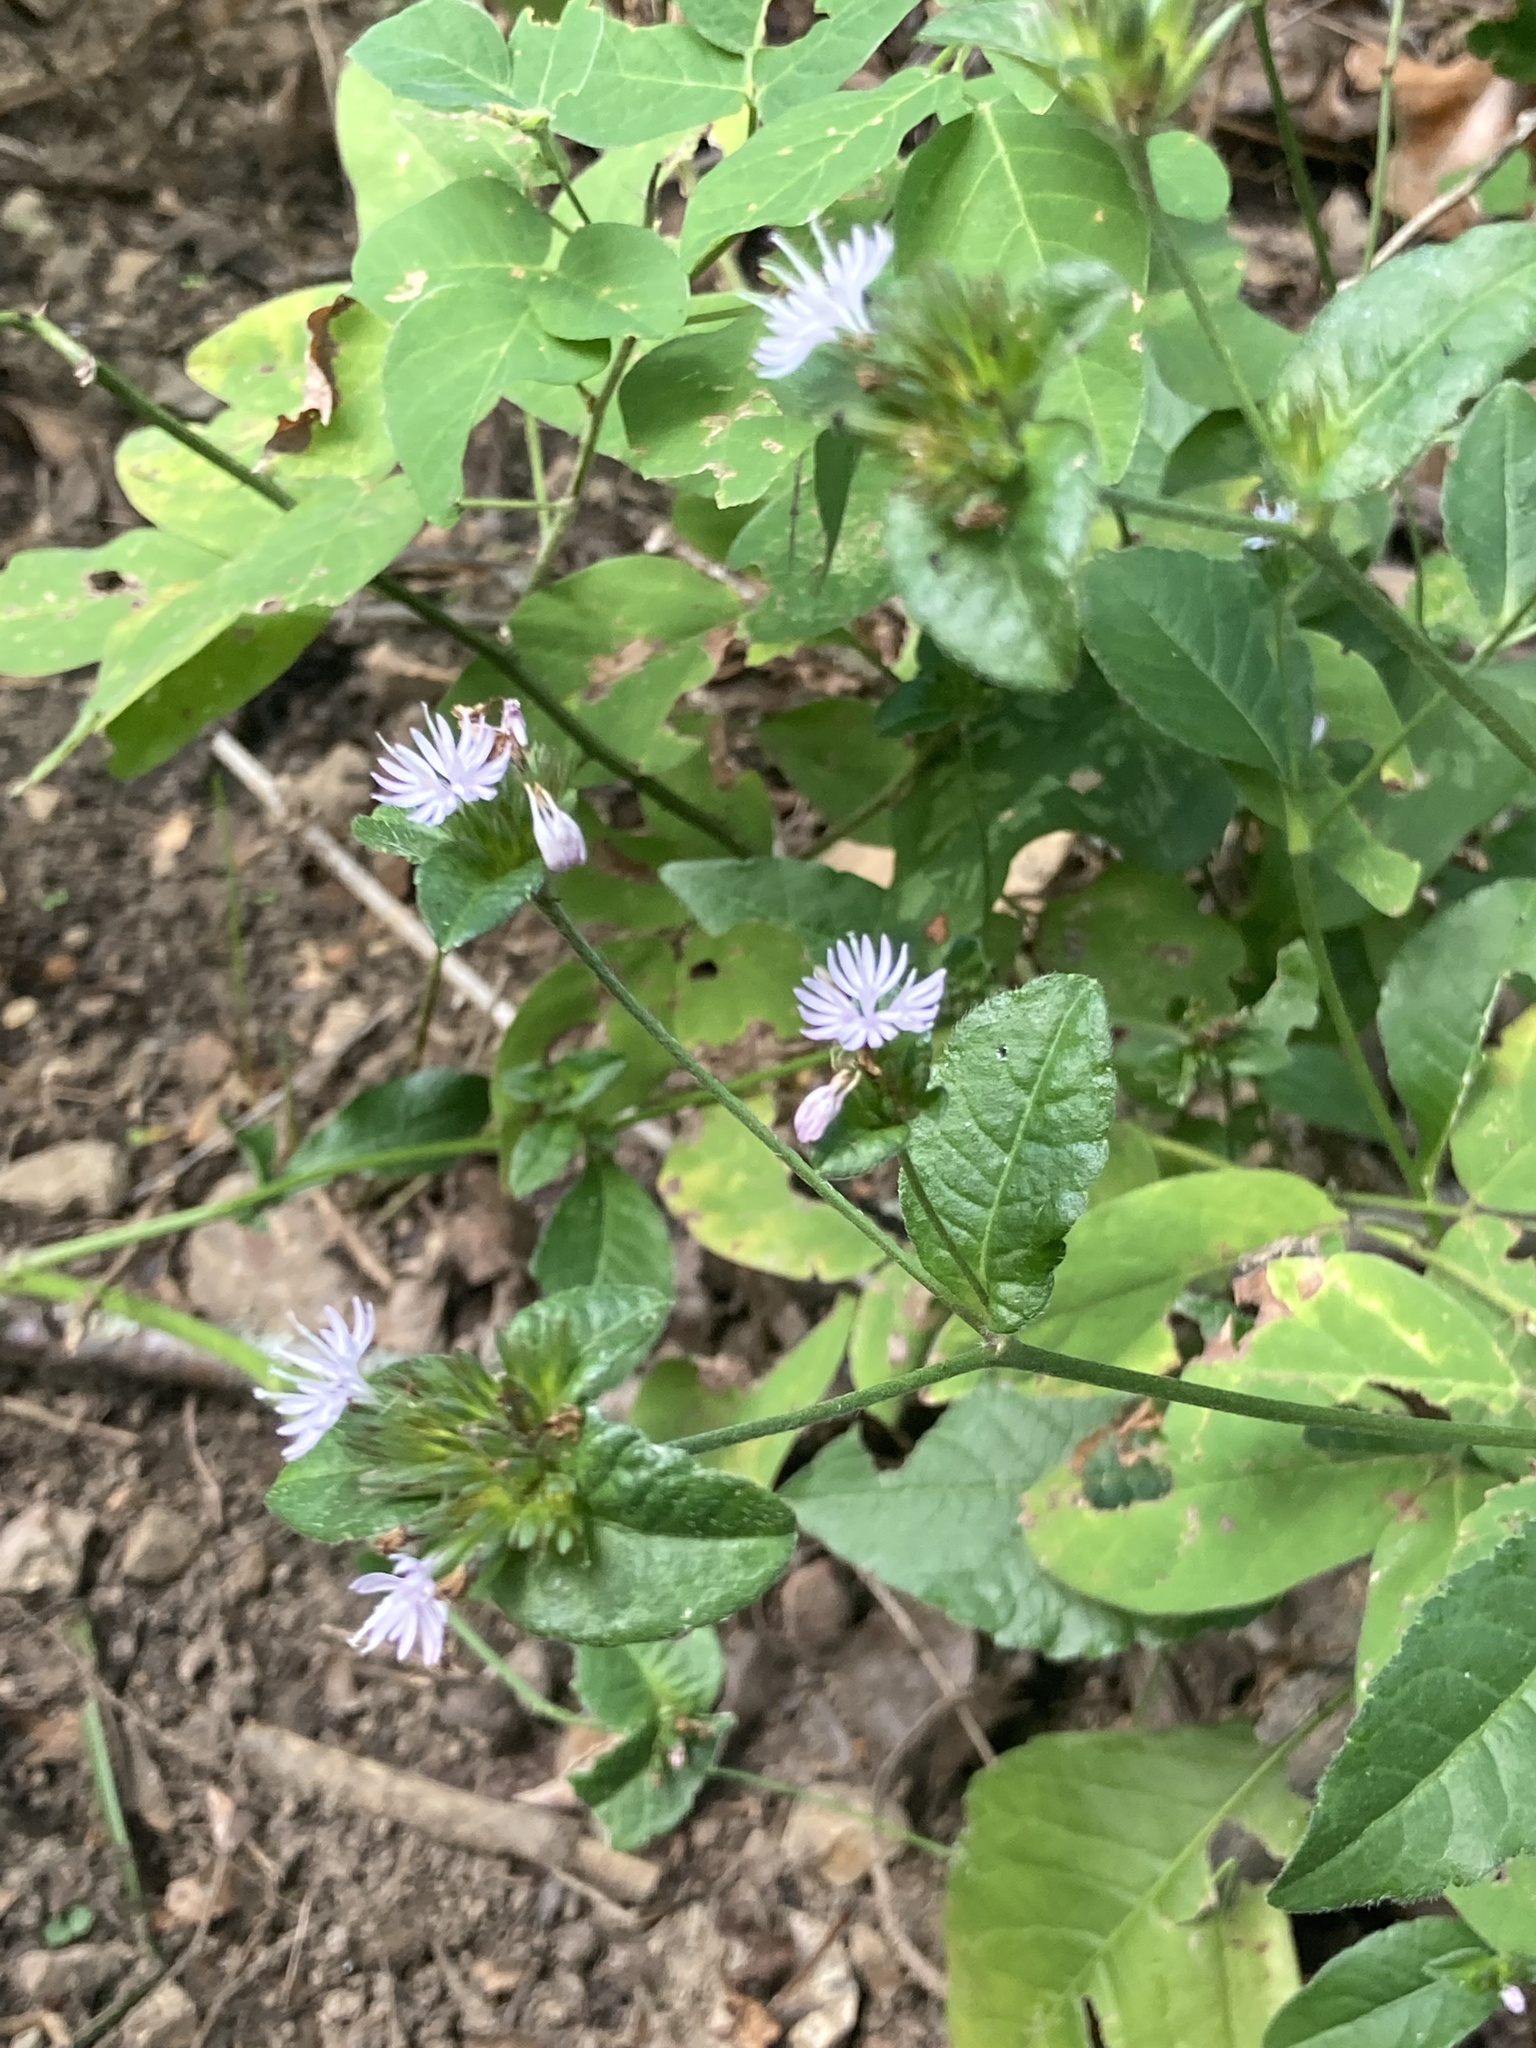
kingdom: Plantae
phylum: Tracheophyta
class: Magnoliopsida
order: Asterales
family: Asteraceae
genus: Elephantopus
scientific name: Elephantopus carolinianus
